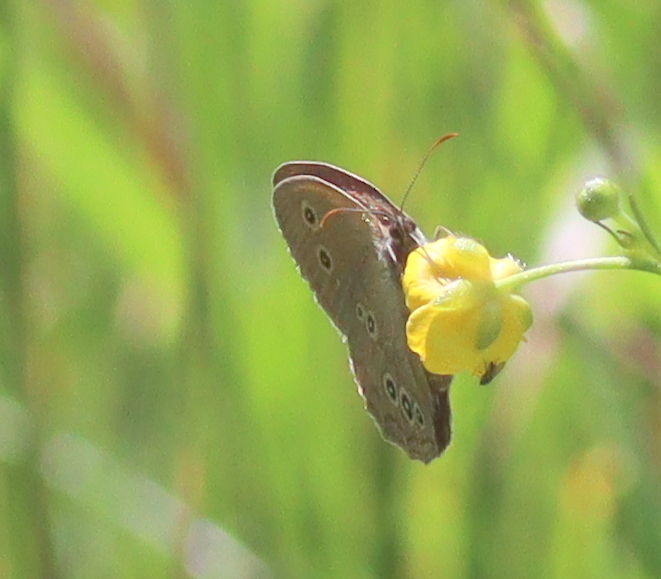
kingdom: Animalia
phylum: Arthropoda
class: Insecta
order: Lepidoptera
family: Nymphalidae
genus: Aphantopus
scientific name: Aphantopus hyperantus
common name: Ringlet
